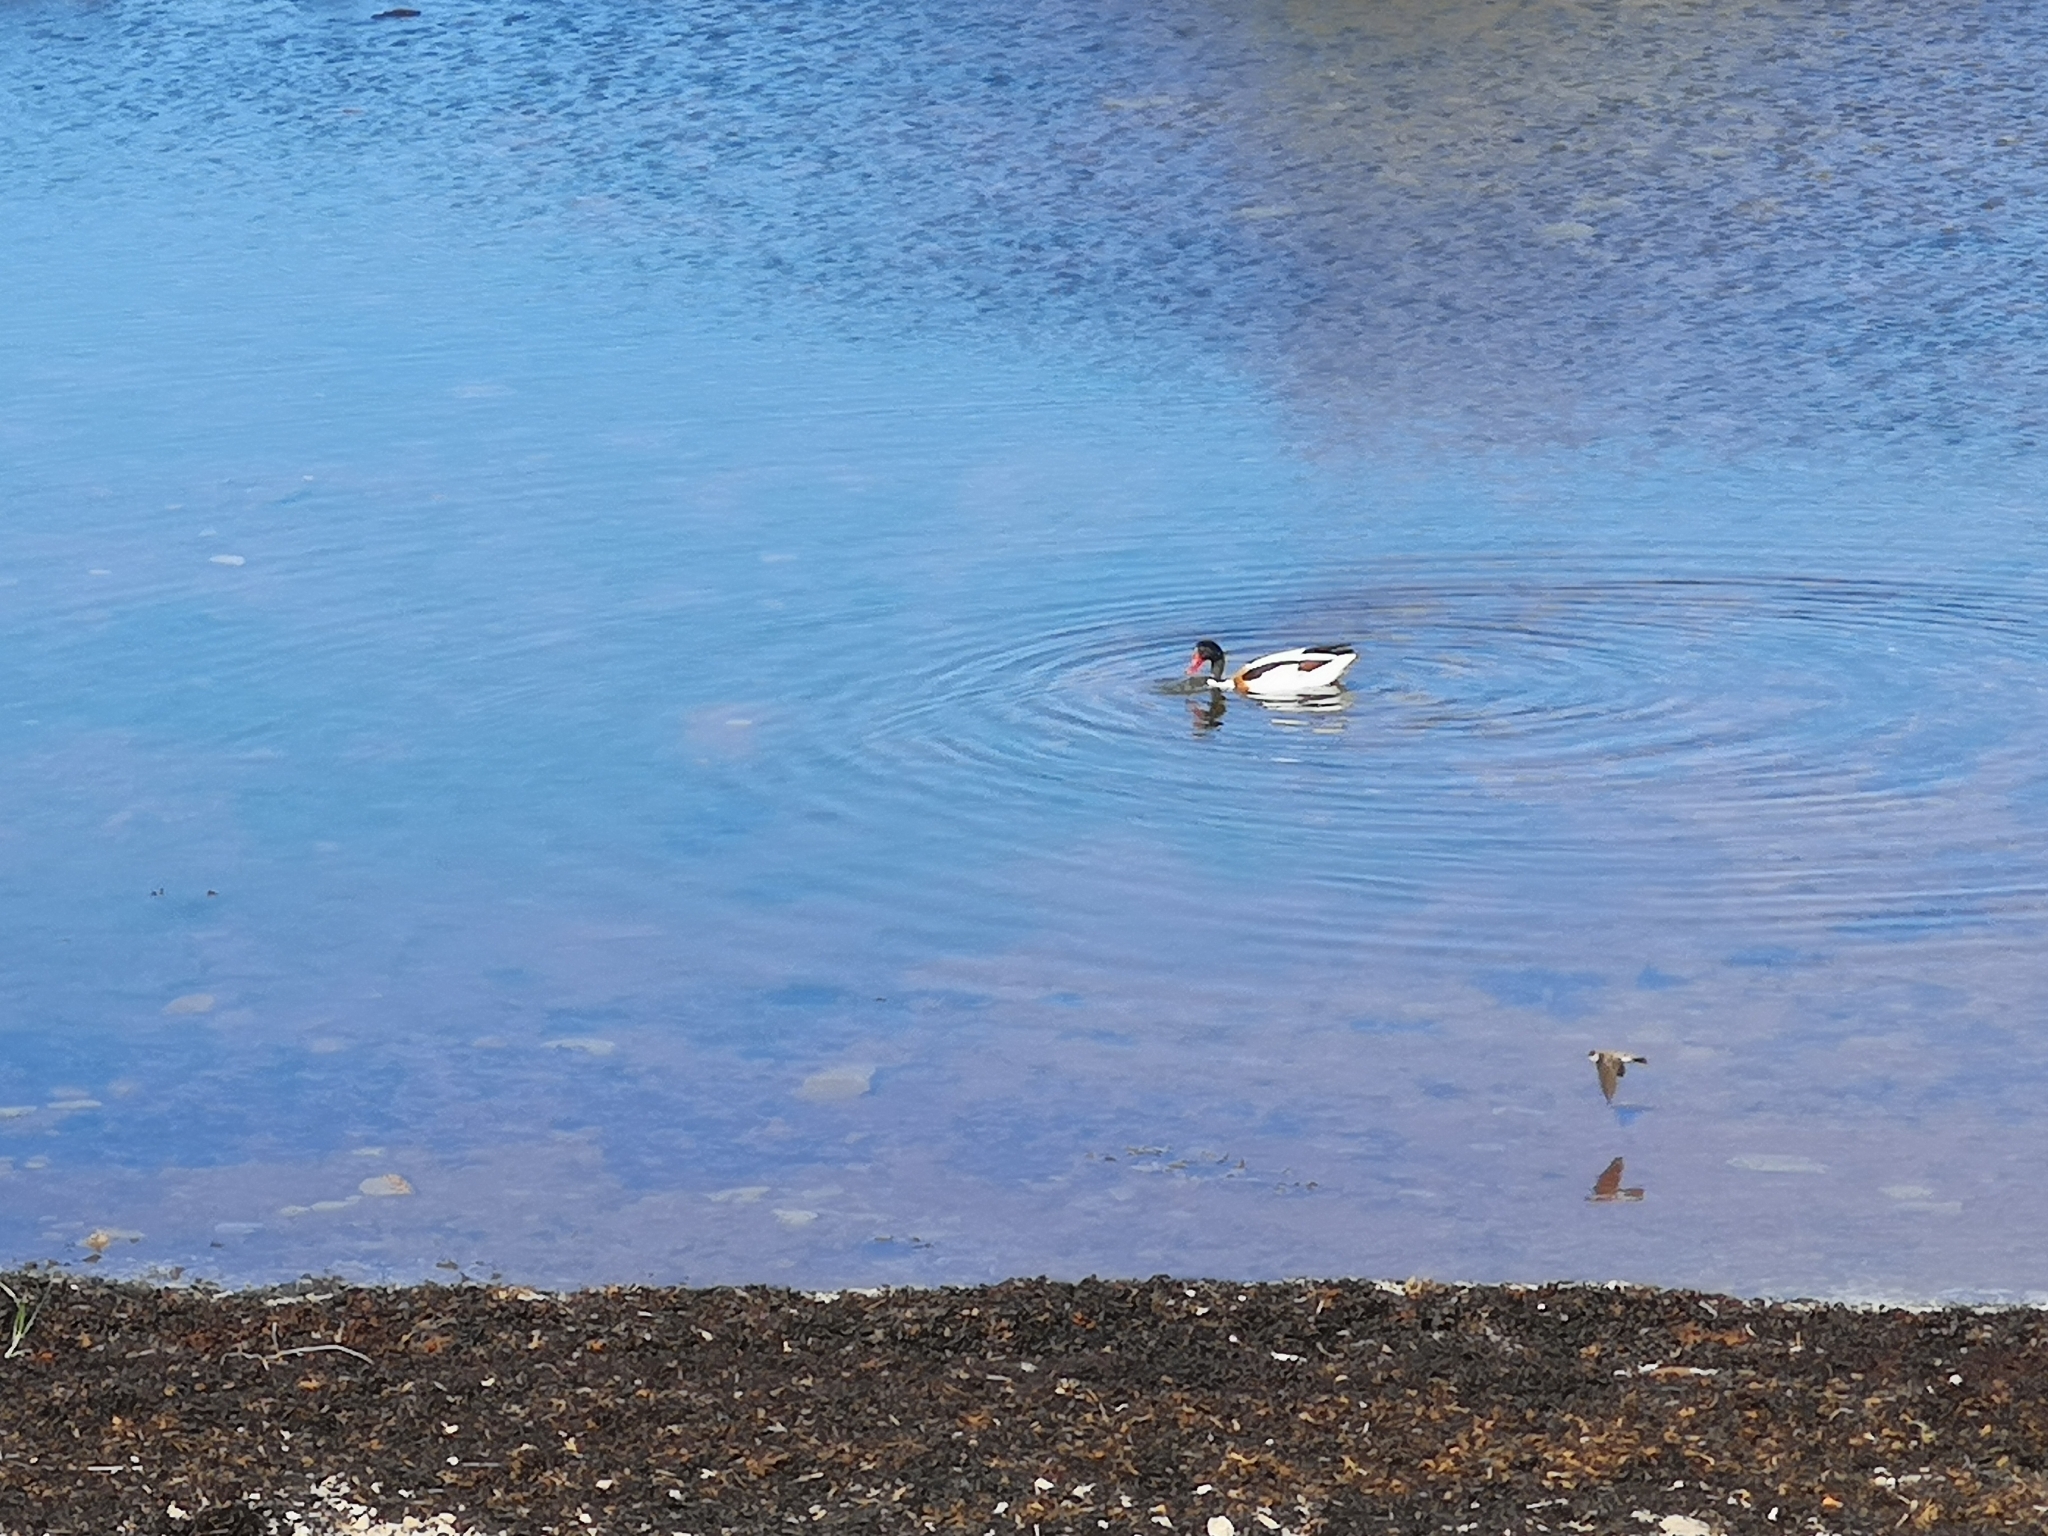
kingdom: Animalia
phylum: Chordata
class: Aves
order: Anseriformes
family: Anatidae
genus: Tadorna
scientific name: Tadorna tadorna
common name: Common shelduck
